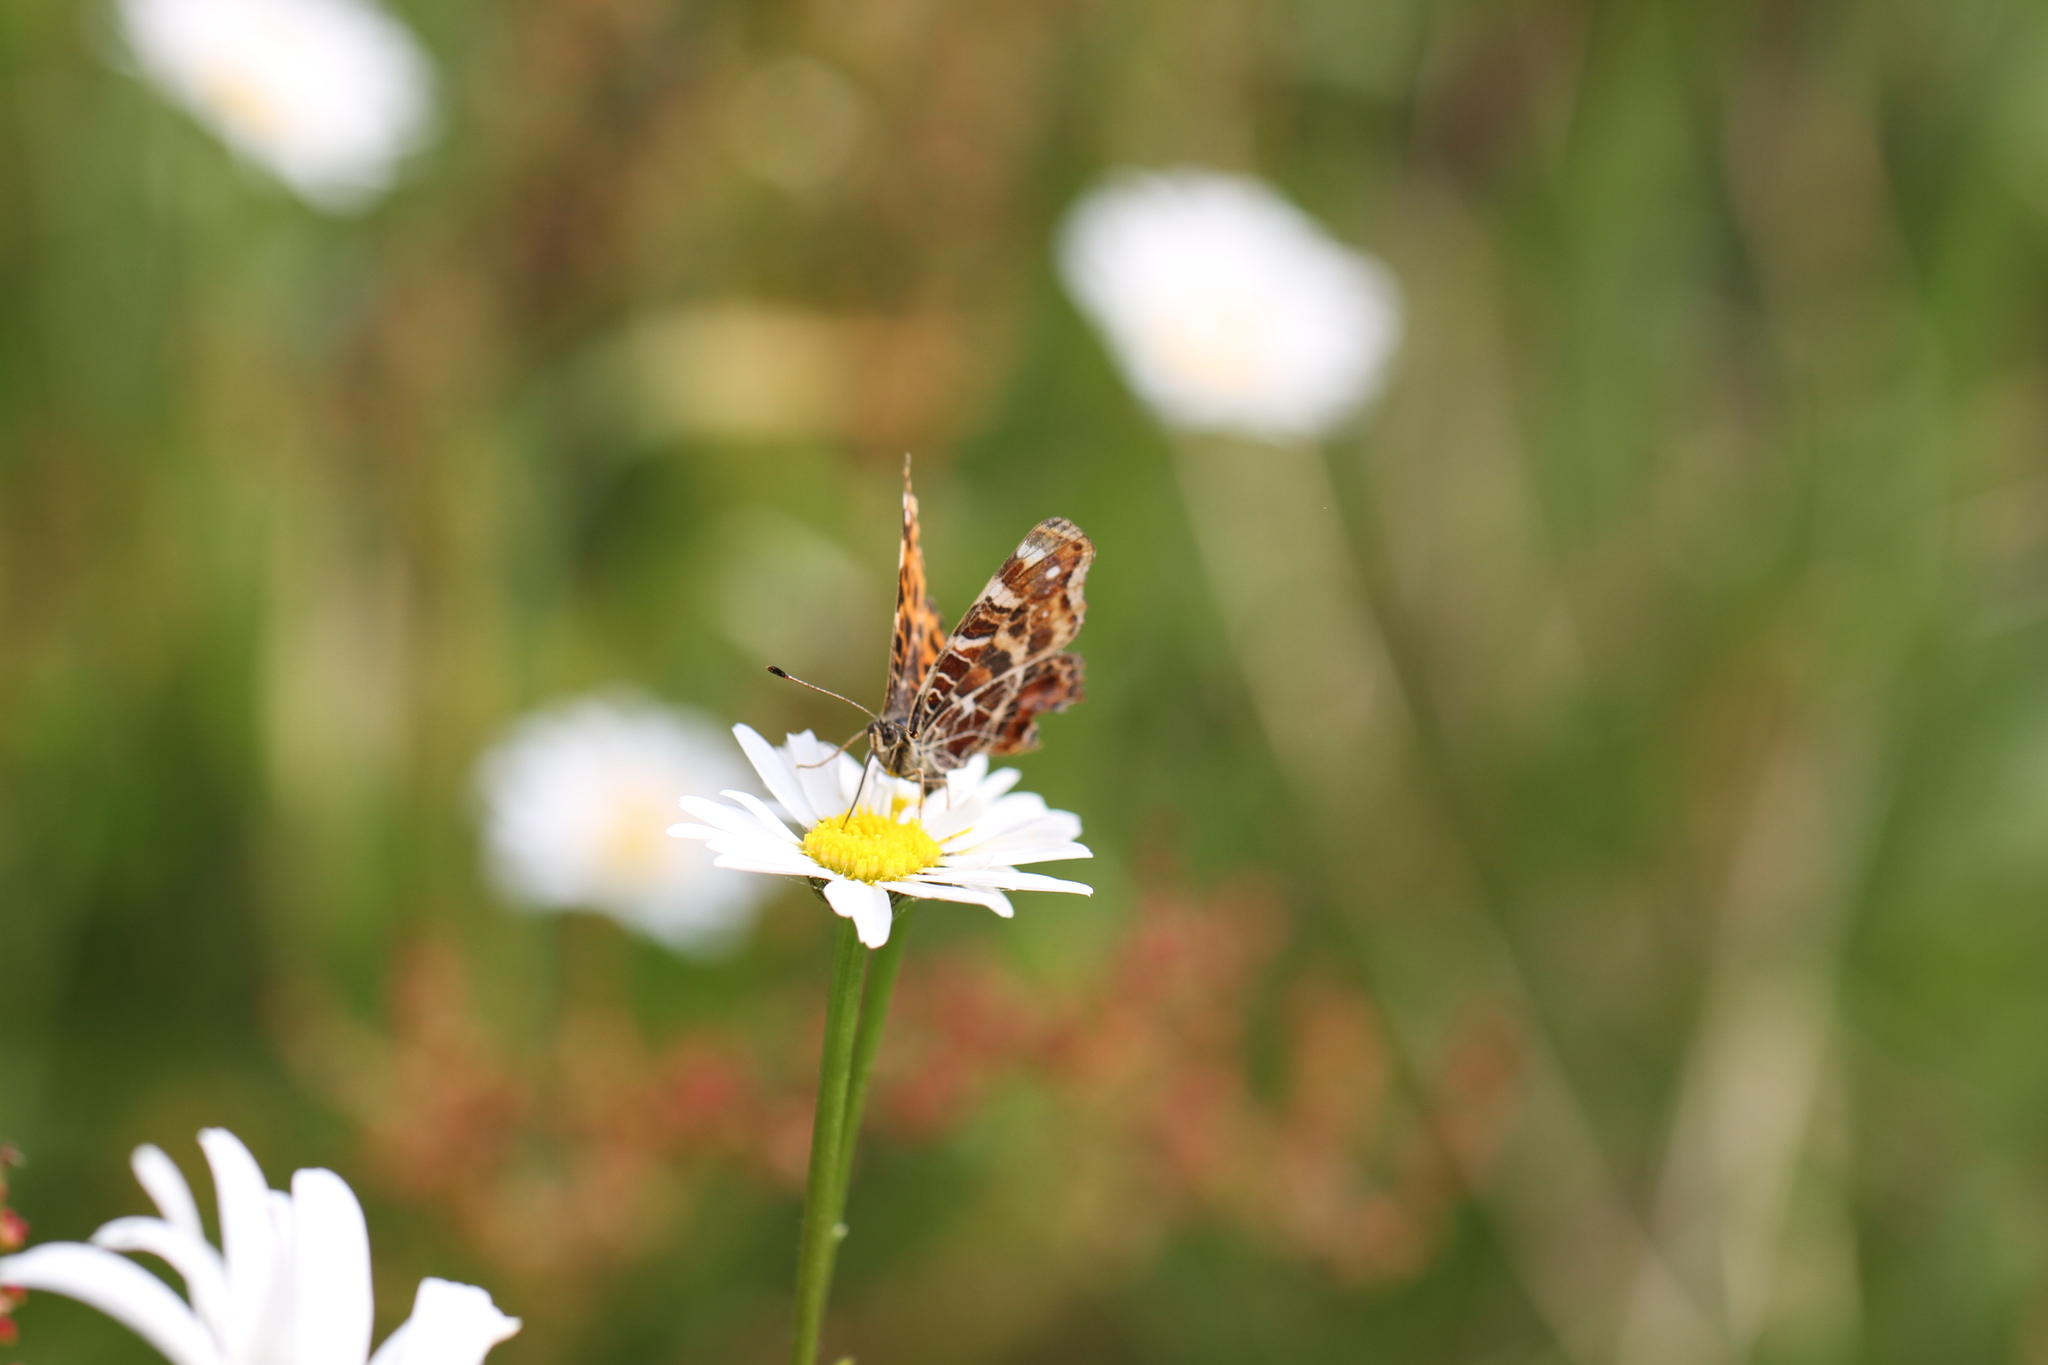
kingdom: Animalia
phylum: Arthropoda
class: Insecta
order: Lepidoptera
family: Nymphalidae
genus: Araschnia
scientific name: Araschnia levana
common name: Map butterfly
